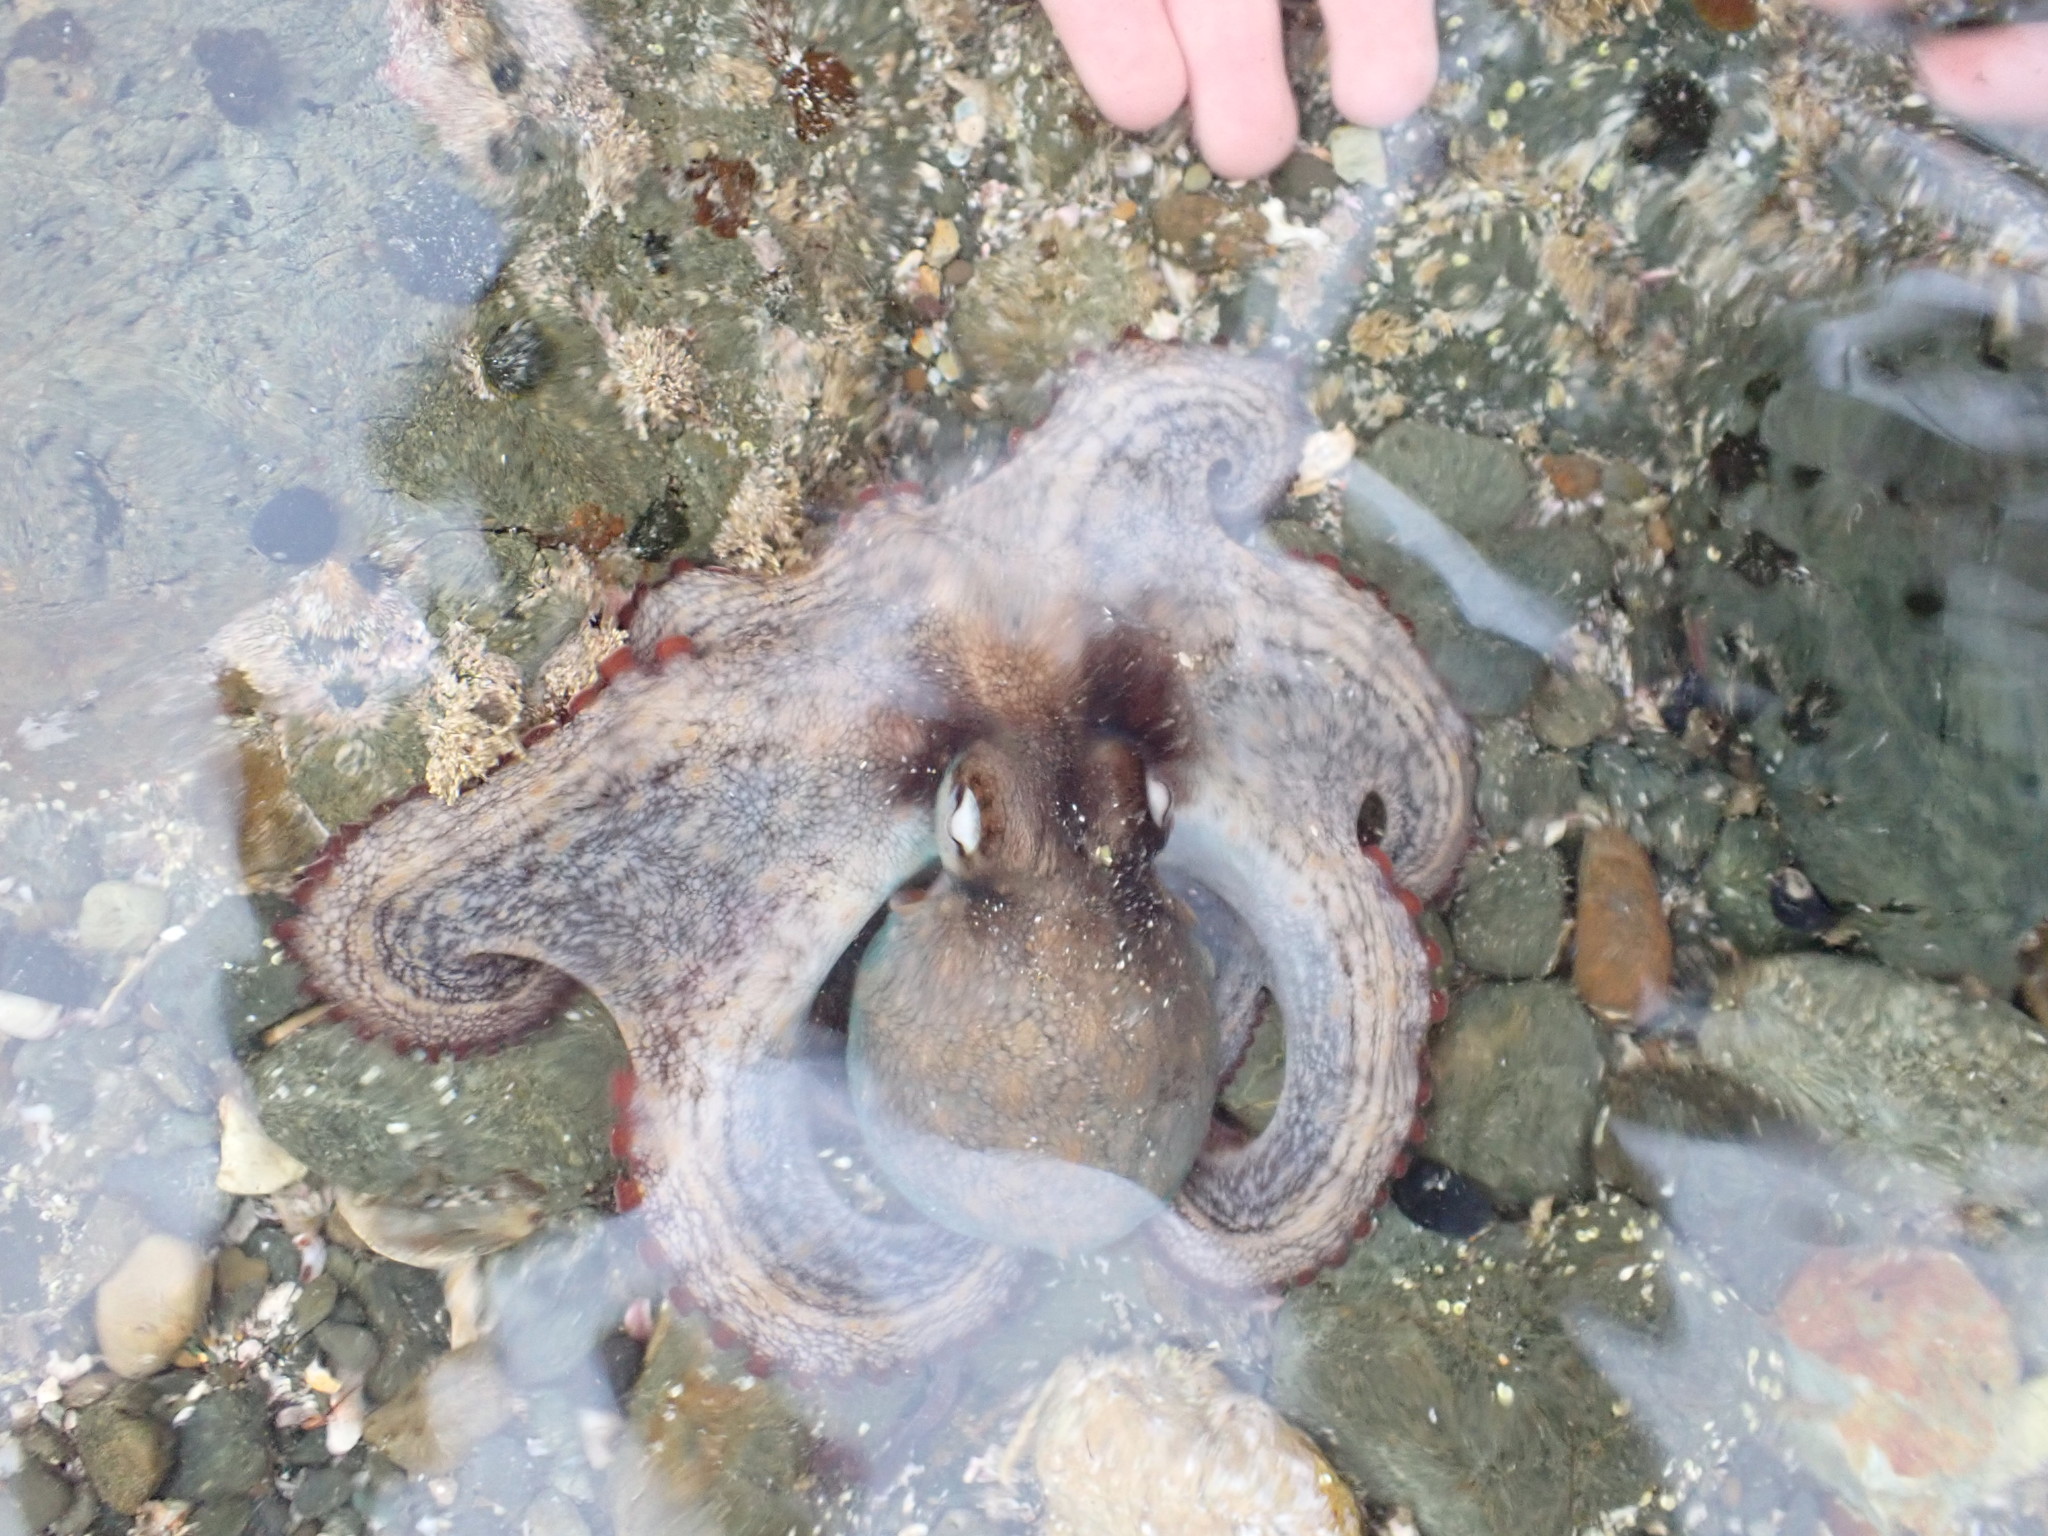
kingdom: Animalia
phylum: Mollusca
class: Cephalopoda
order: Octopoda
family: Octopodidae
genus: Octopus
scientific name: Octopus tetricus
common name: Sydney octopus
